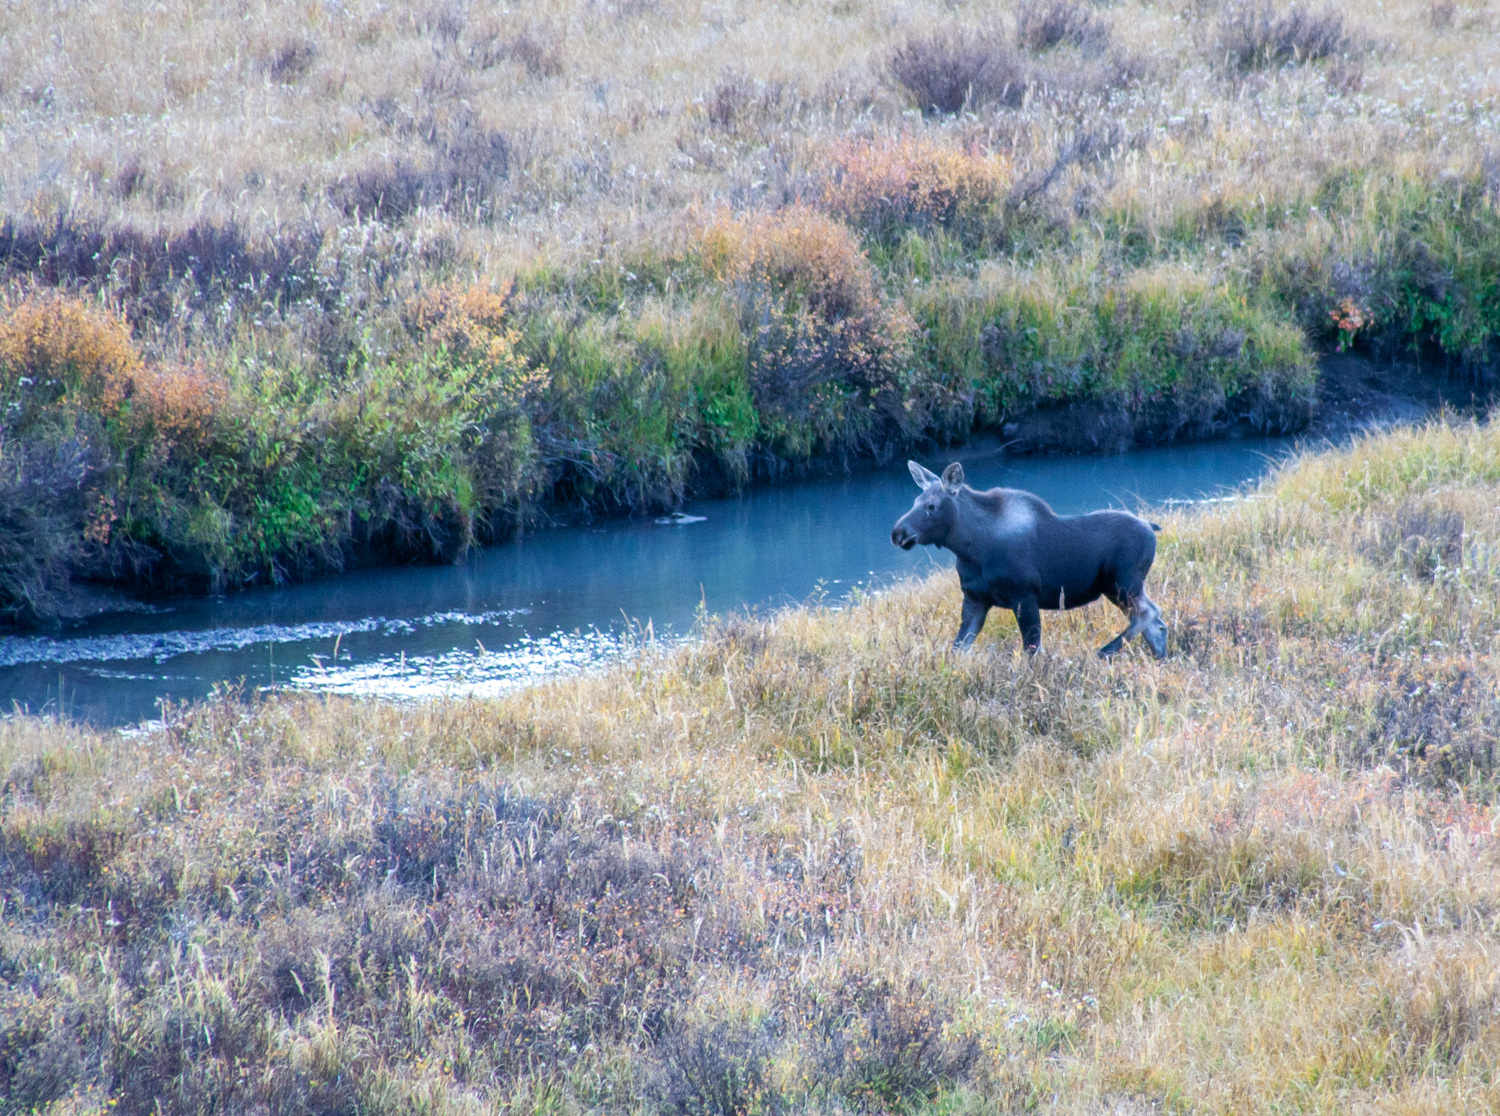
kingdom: Animalia
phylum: Chordata
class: Mammalia
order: Artiodactyla
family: Cervidae
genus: Alces
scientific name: Alces alces
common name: Moose
